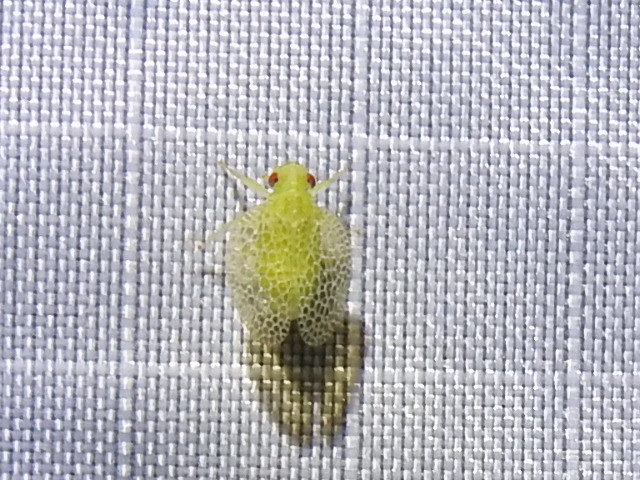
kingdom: Animalia
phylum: Arthropoda
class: Insecta
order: Hemiptera
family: Tropiduchidae
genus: Dictyonissus
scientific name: Dictyonissus griphus
